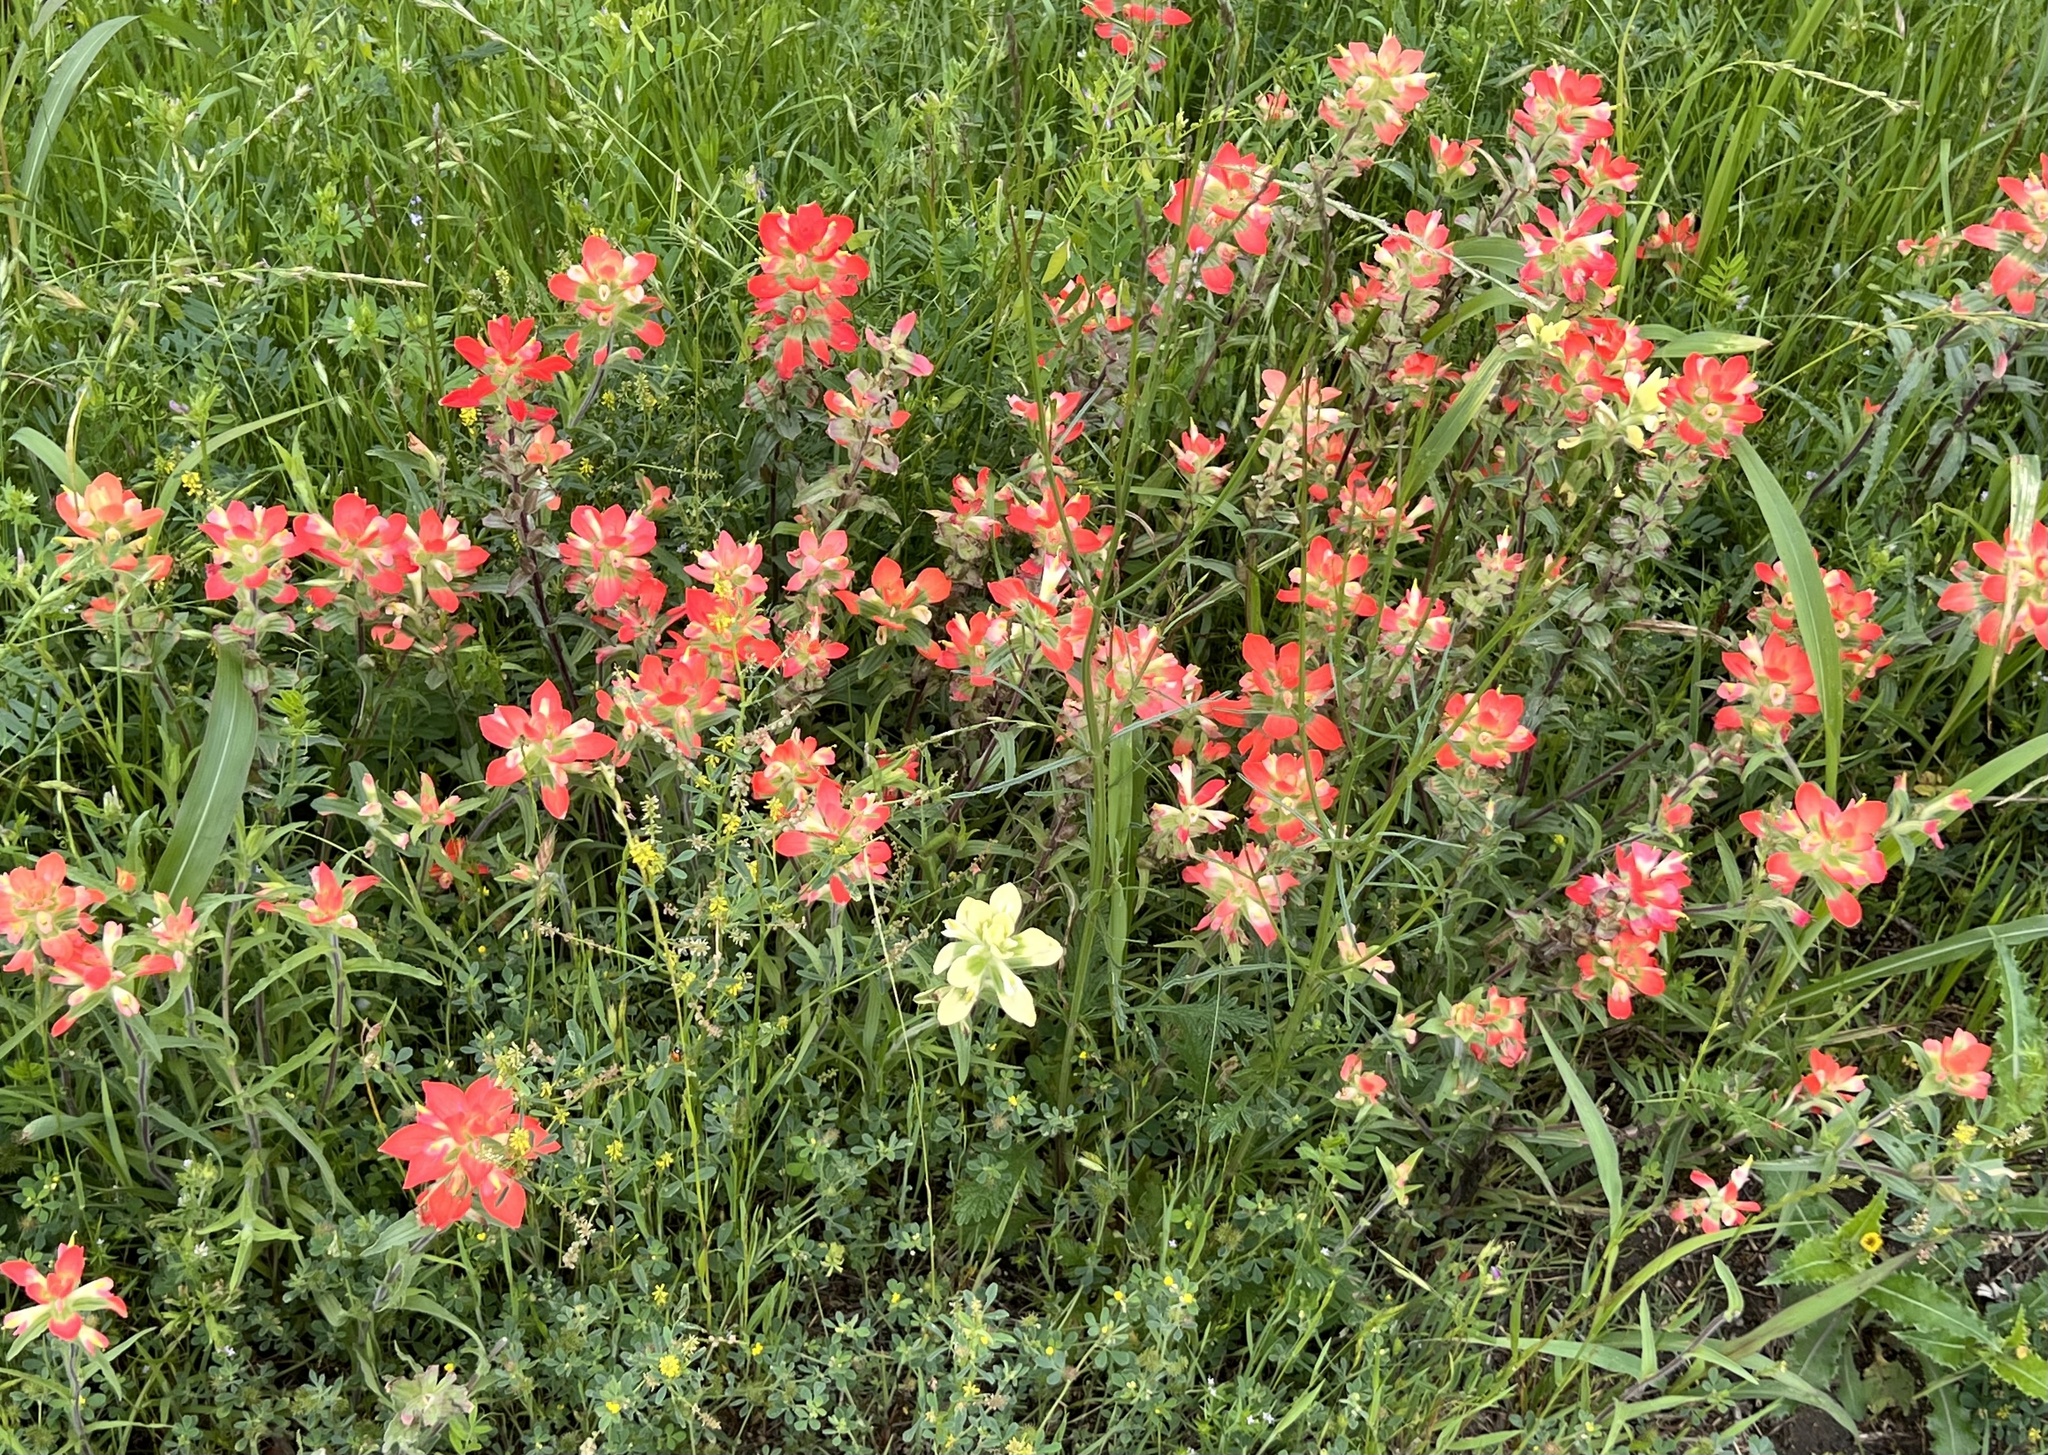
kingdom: Plantae
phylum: Tracheophyta
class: Magnoliopsida
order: Lamiales
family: Orobanchaceae
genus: Castilleja
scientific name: Castilleja indivisa
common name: Texas paintbrush
